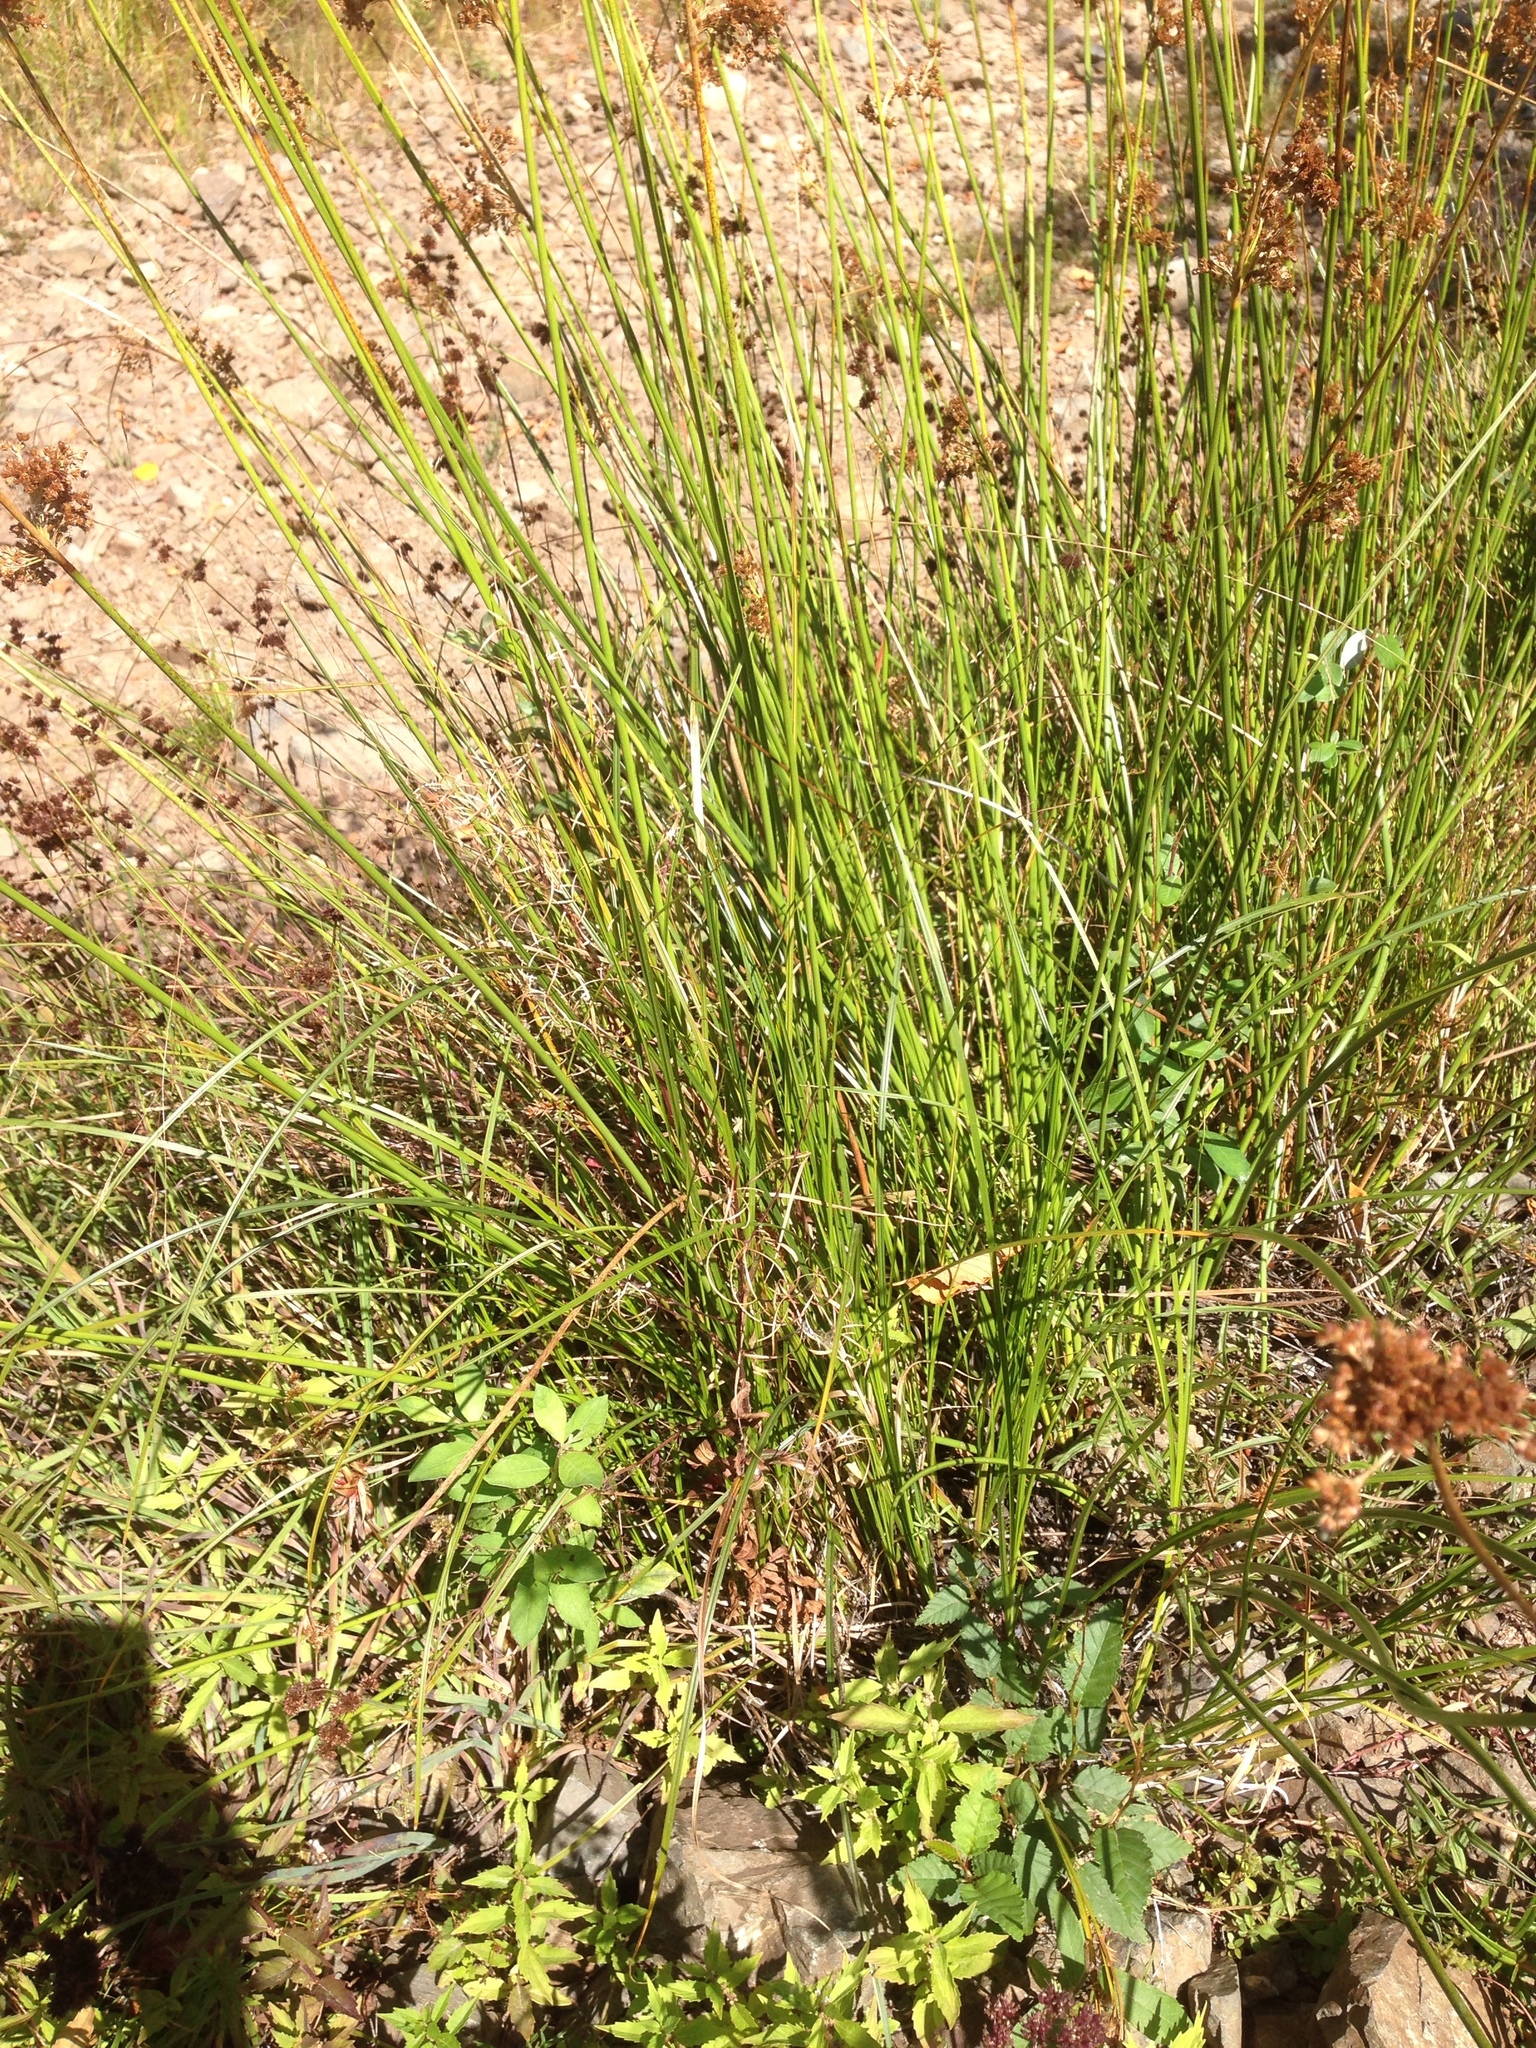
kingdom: Plantae
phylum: Tracheophyta
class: Liliopsida
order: Poales
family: Juncaceae
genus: Juncus
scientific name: Juncus effusus
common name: Soft rush
